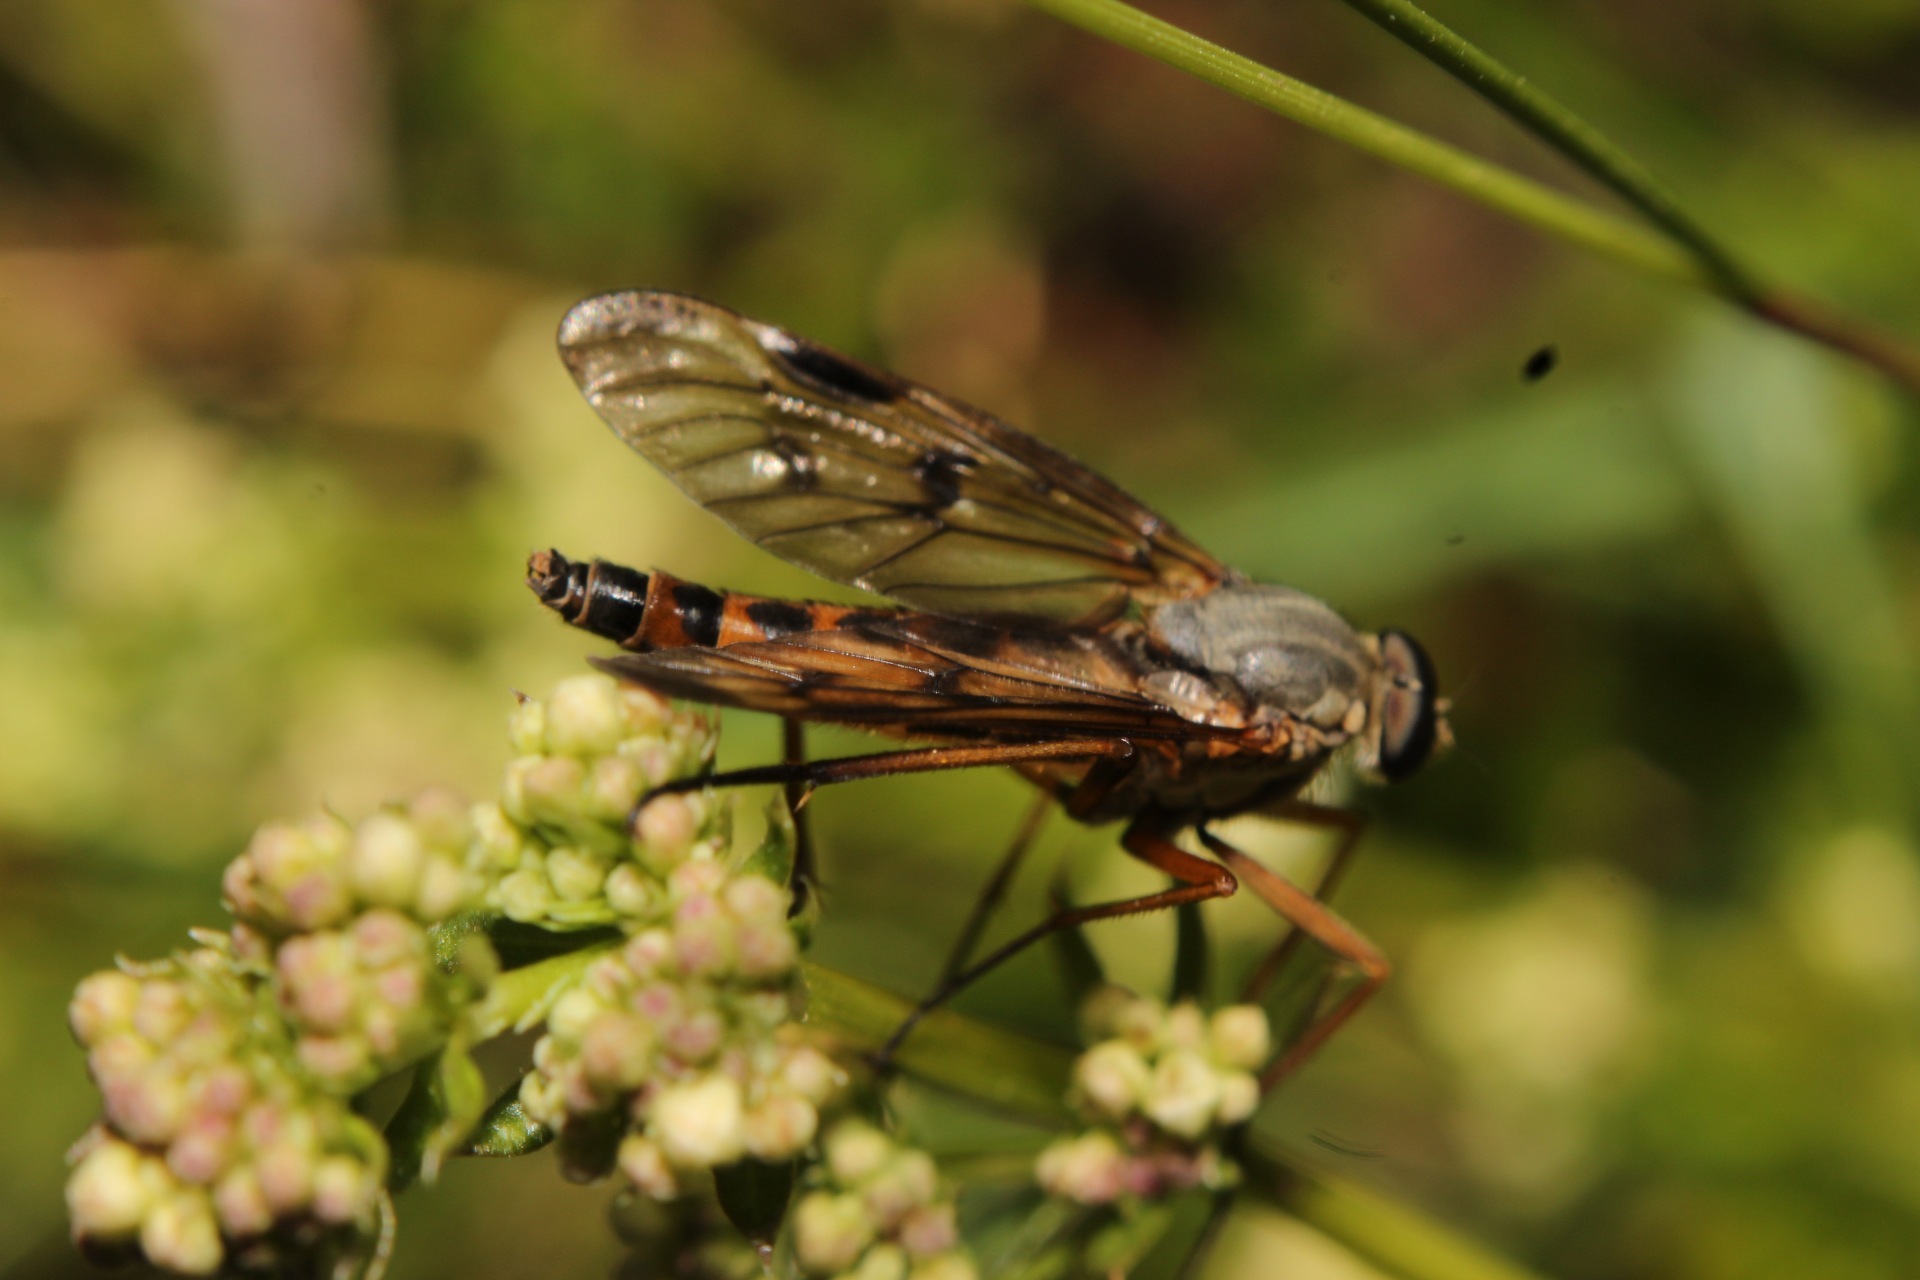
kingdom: Animalia
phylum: Arthropoda
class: Insecta
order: Diptera
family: Rhagionidae
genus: Rhagio
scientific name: Rhagio scolopacea
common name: Downlooker snipefly
